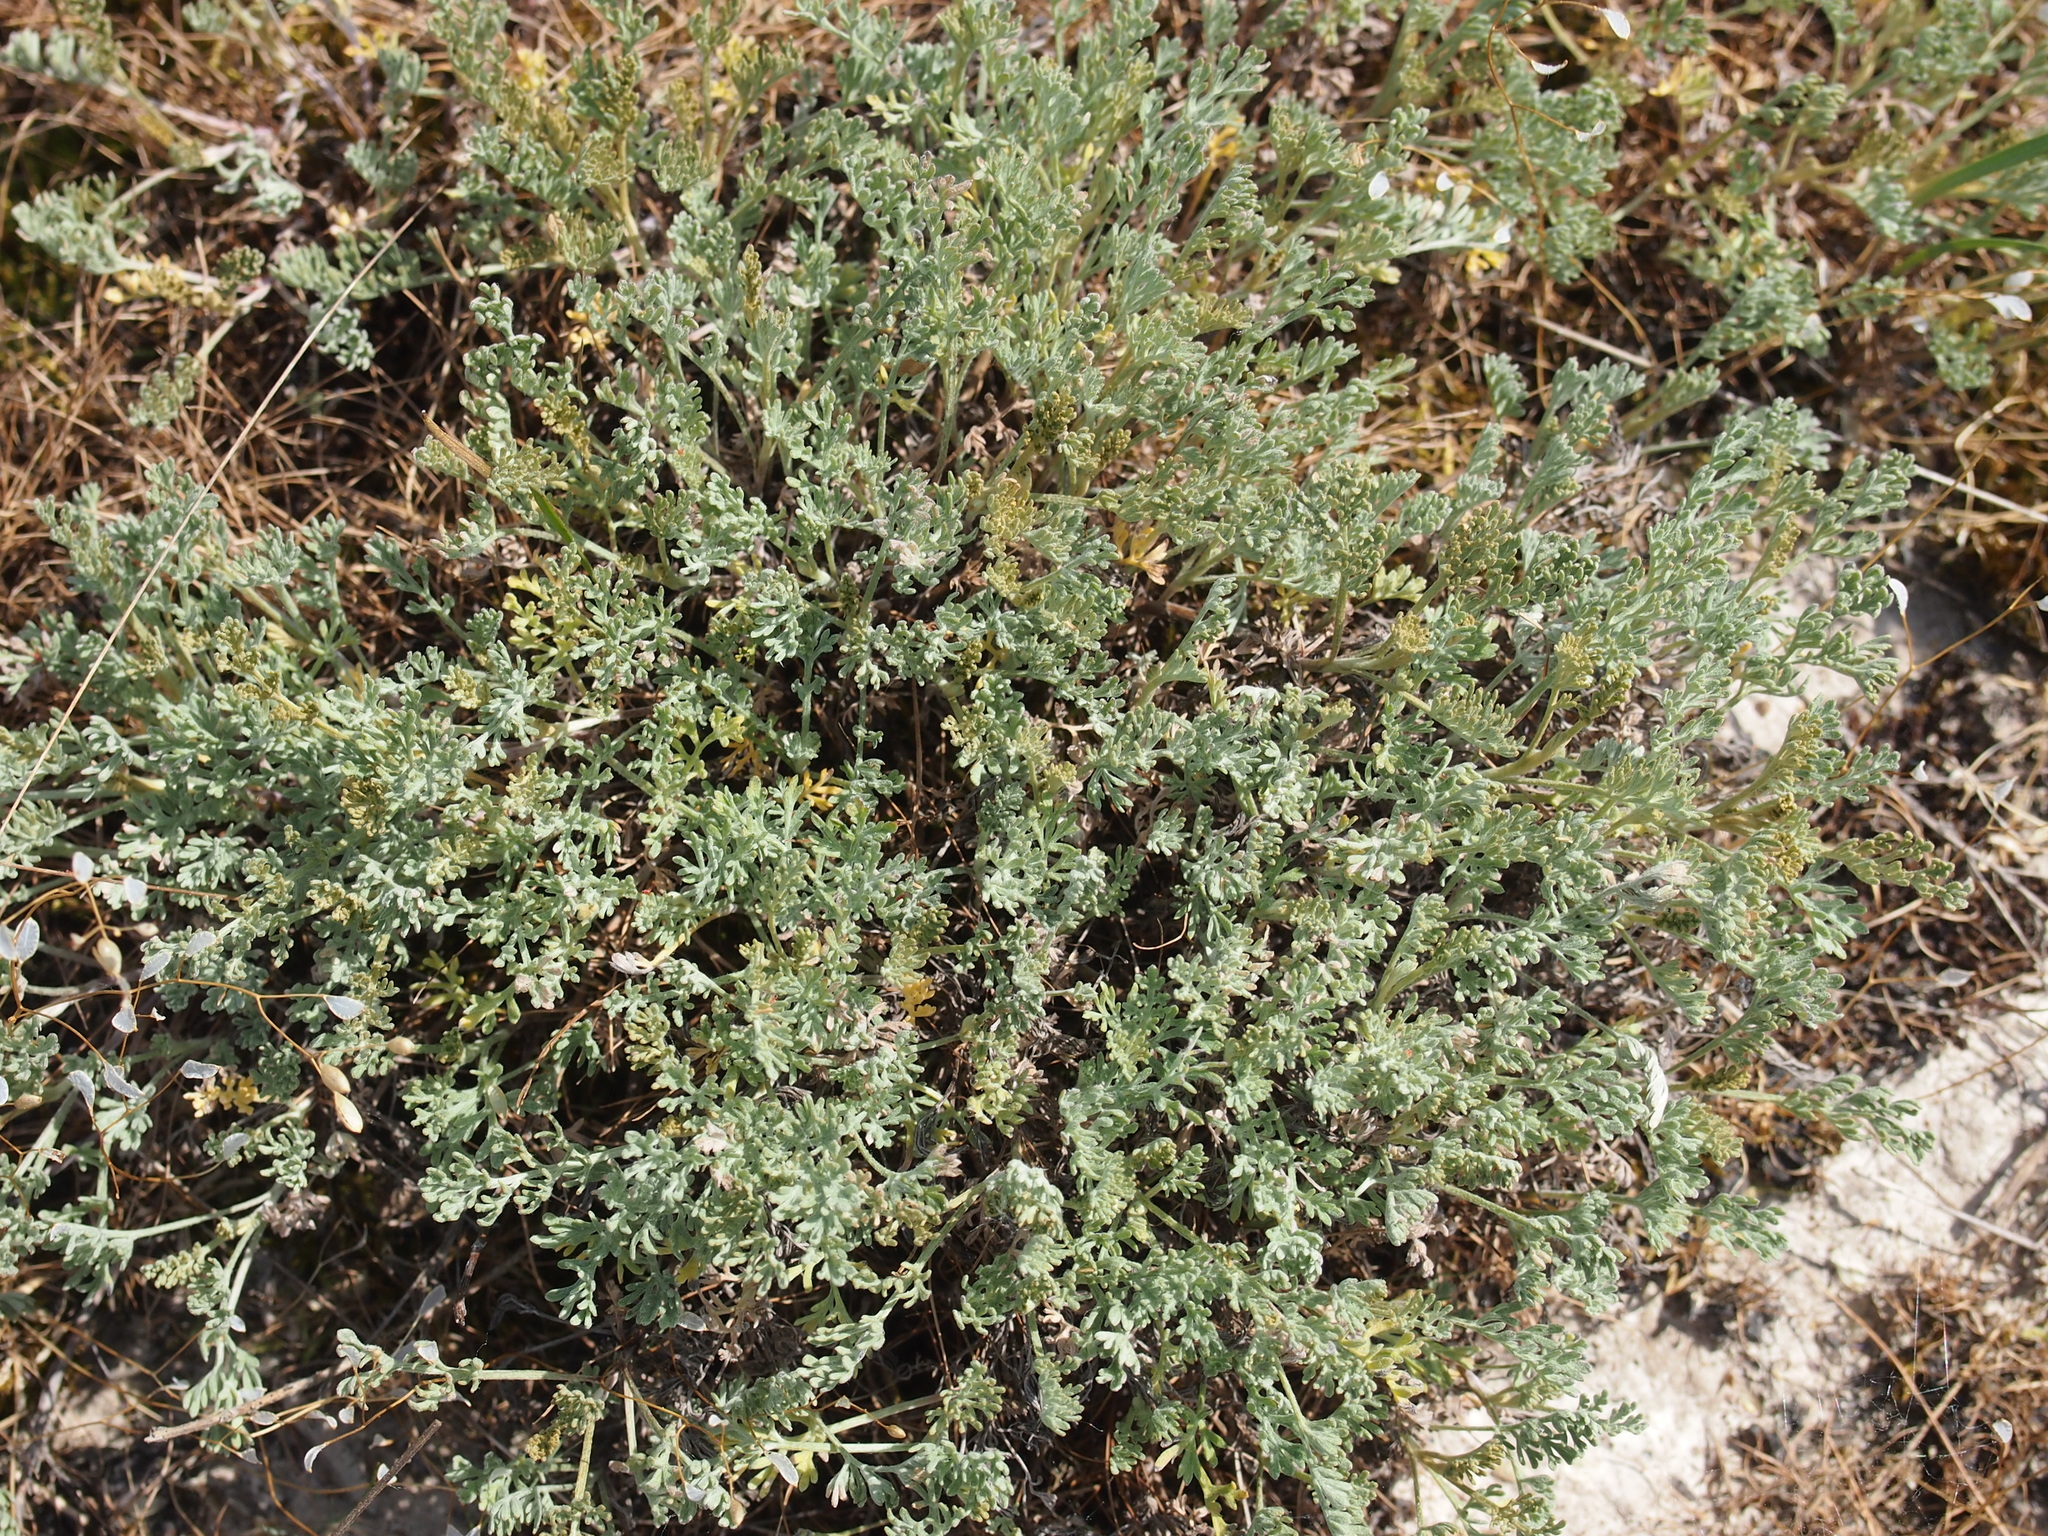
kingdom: Plantae
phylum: Tracheophyta
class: Magnoliopsida
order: Asterales
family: Asteraceae
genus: Artemisia
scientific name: Artemisia maritima
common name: Wormseed
